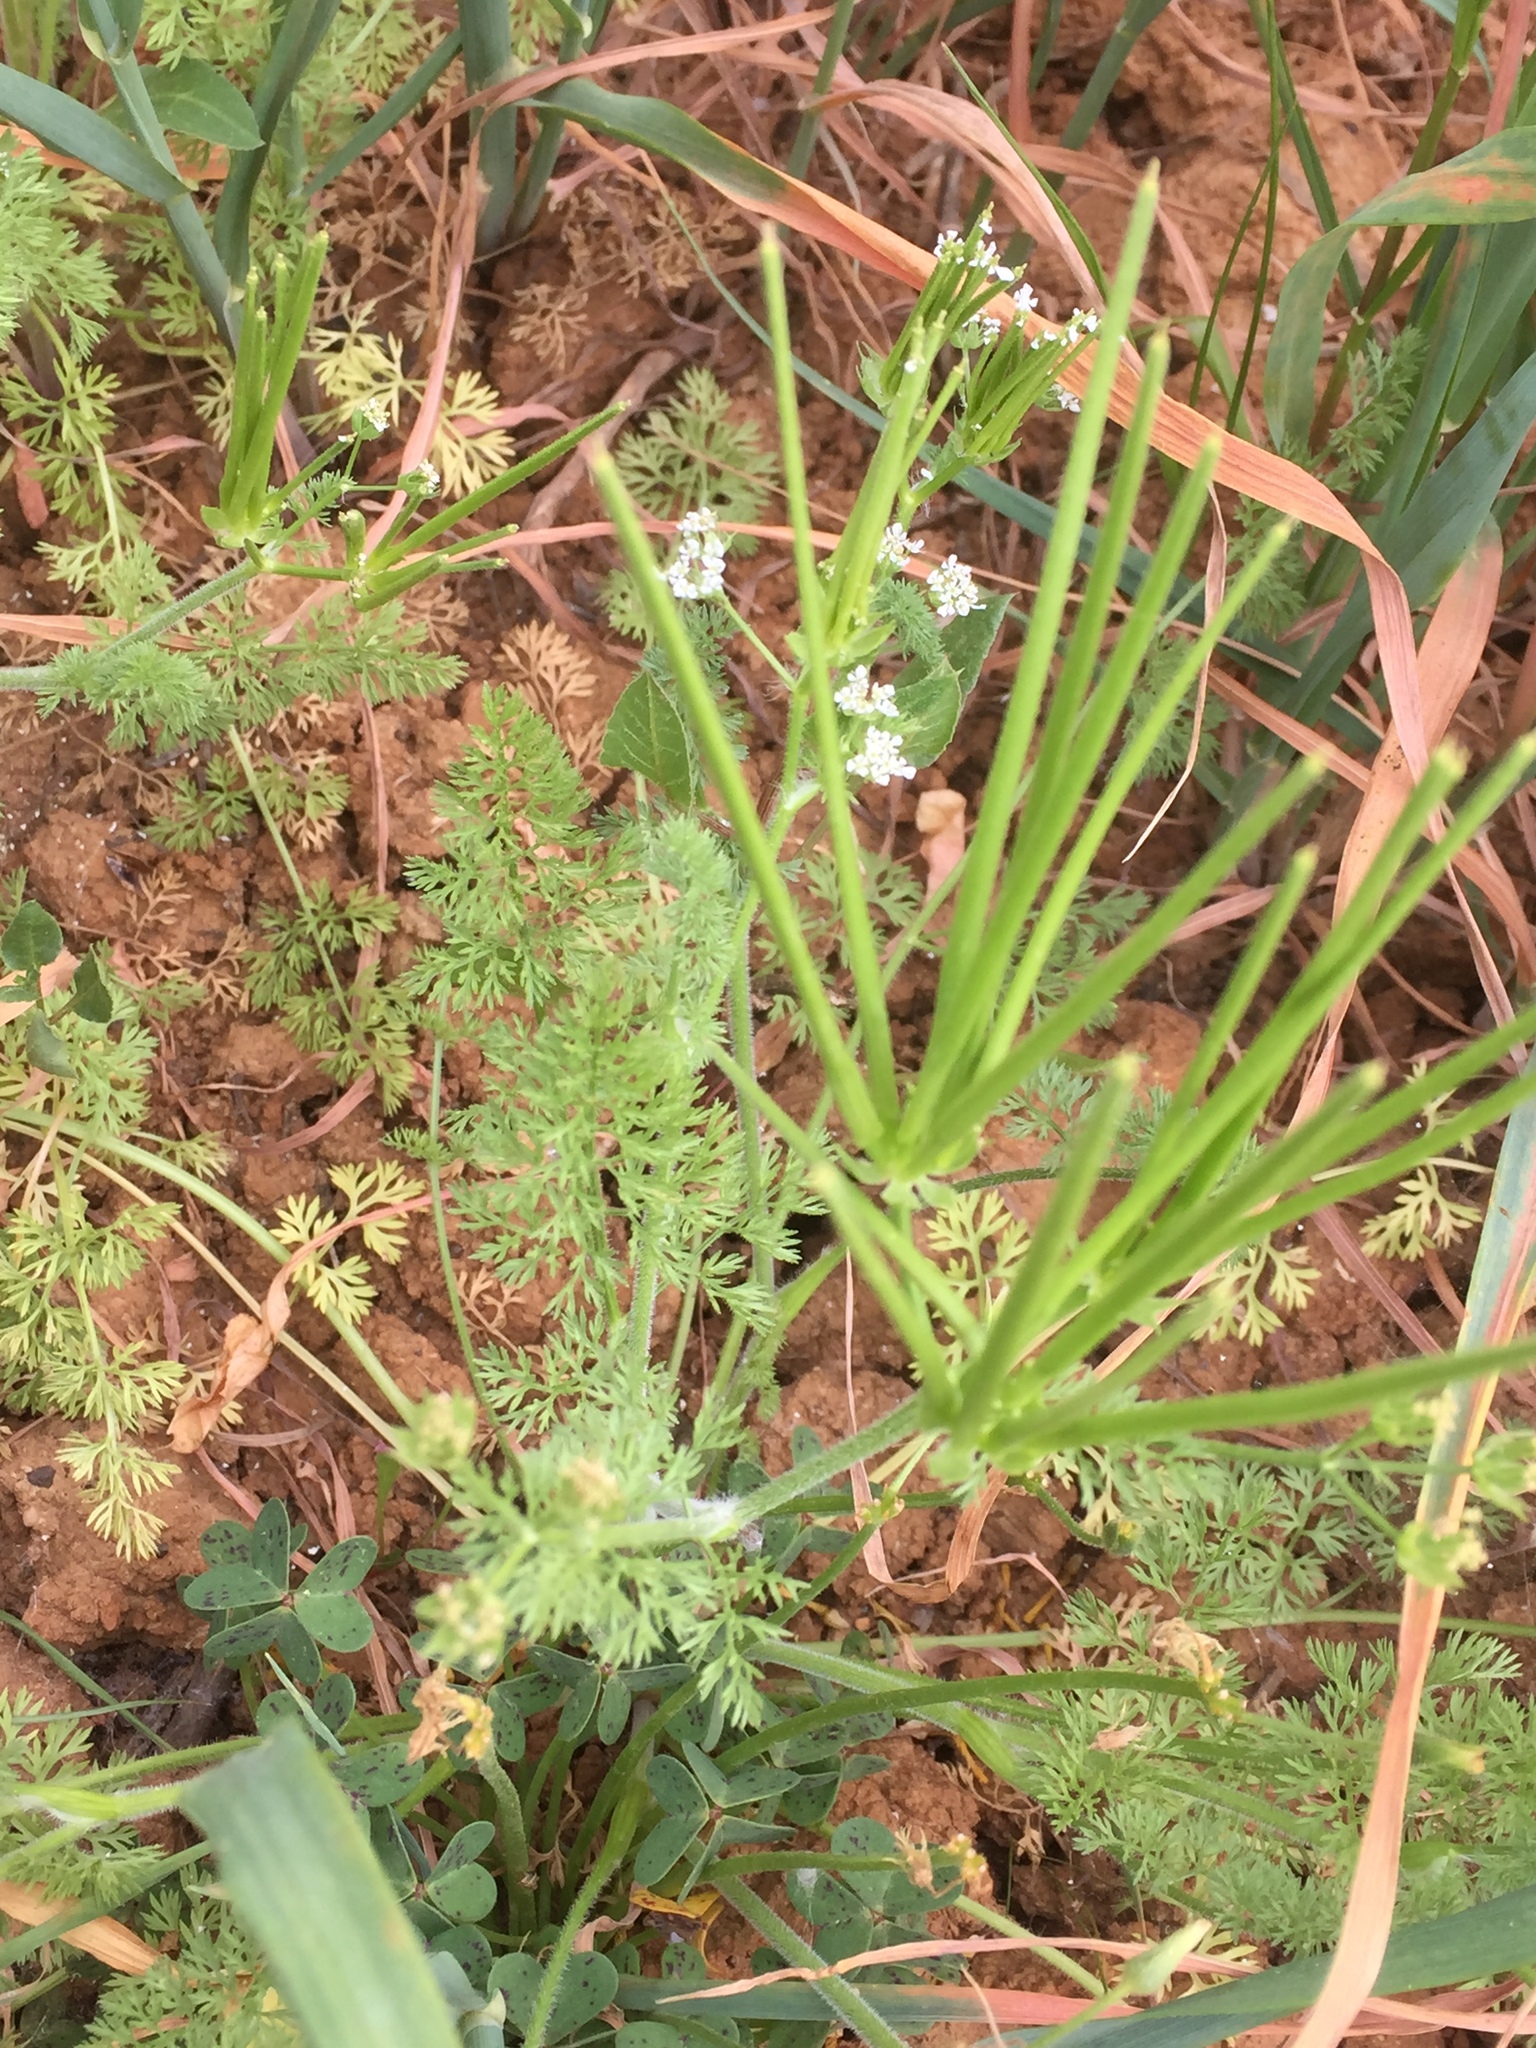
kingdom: Plantae
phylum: Tracheophyta
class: Magnoliopsida
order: Apiales
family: Apiaceae
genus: Scandix
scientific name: Scandix pecten-veneris
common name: Shepherd's-needle
